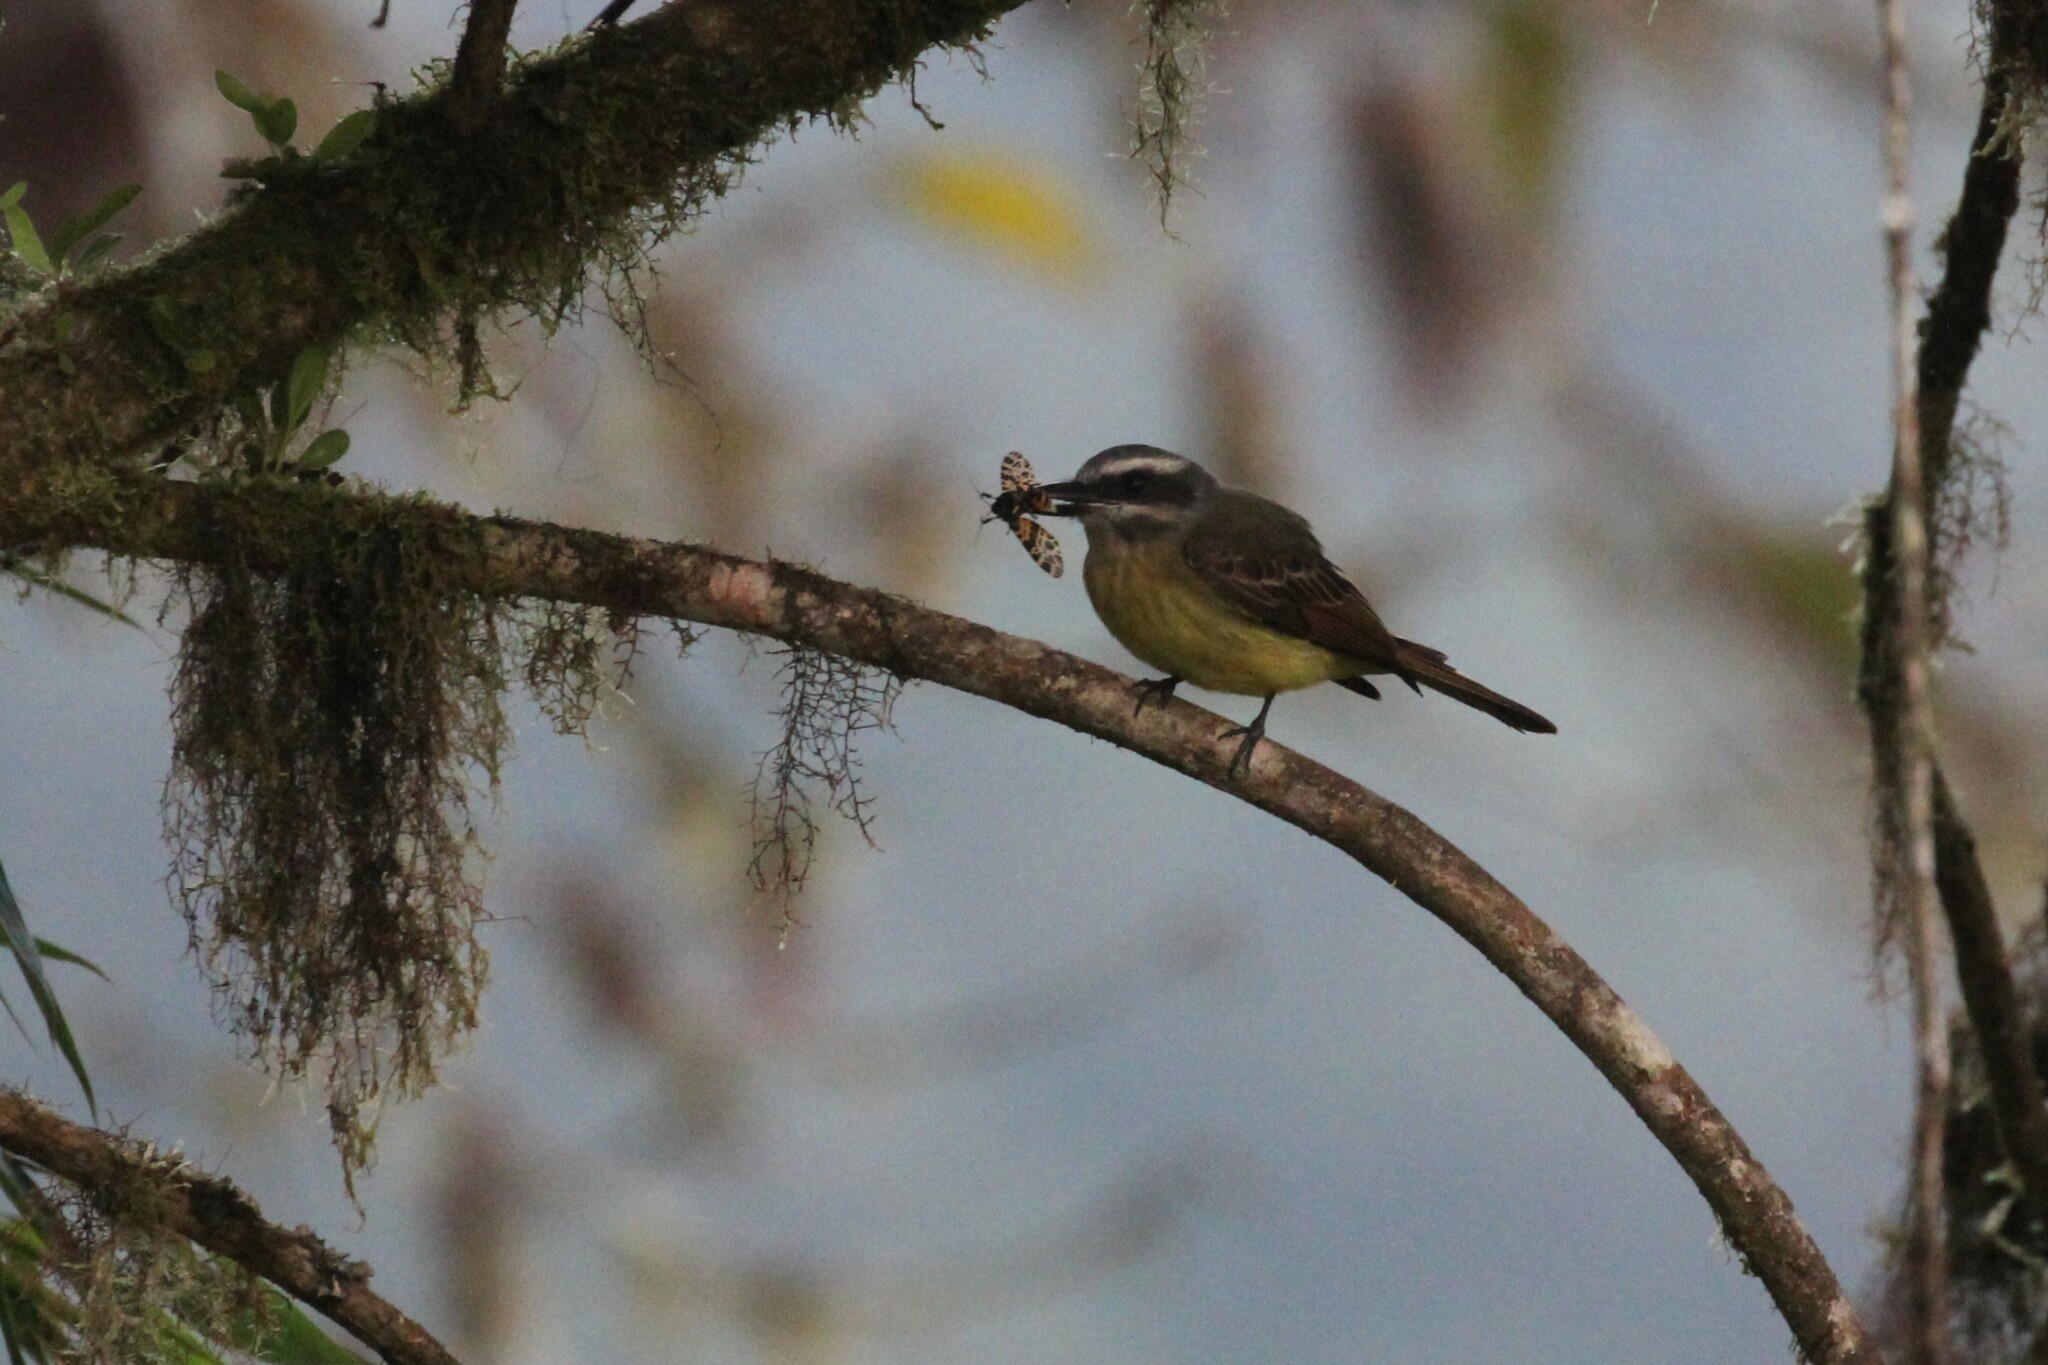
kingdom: Animalia
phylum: Chordata
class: Aves
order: Passeriformes
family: Tyrannidae
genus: Myiodynastes
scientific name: Myiodynastes hemichrysus
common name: Golden-bellied flycatcher
